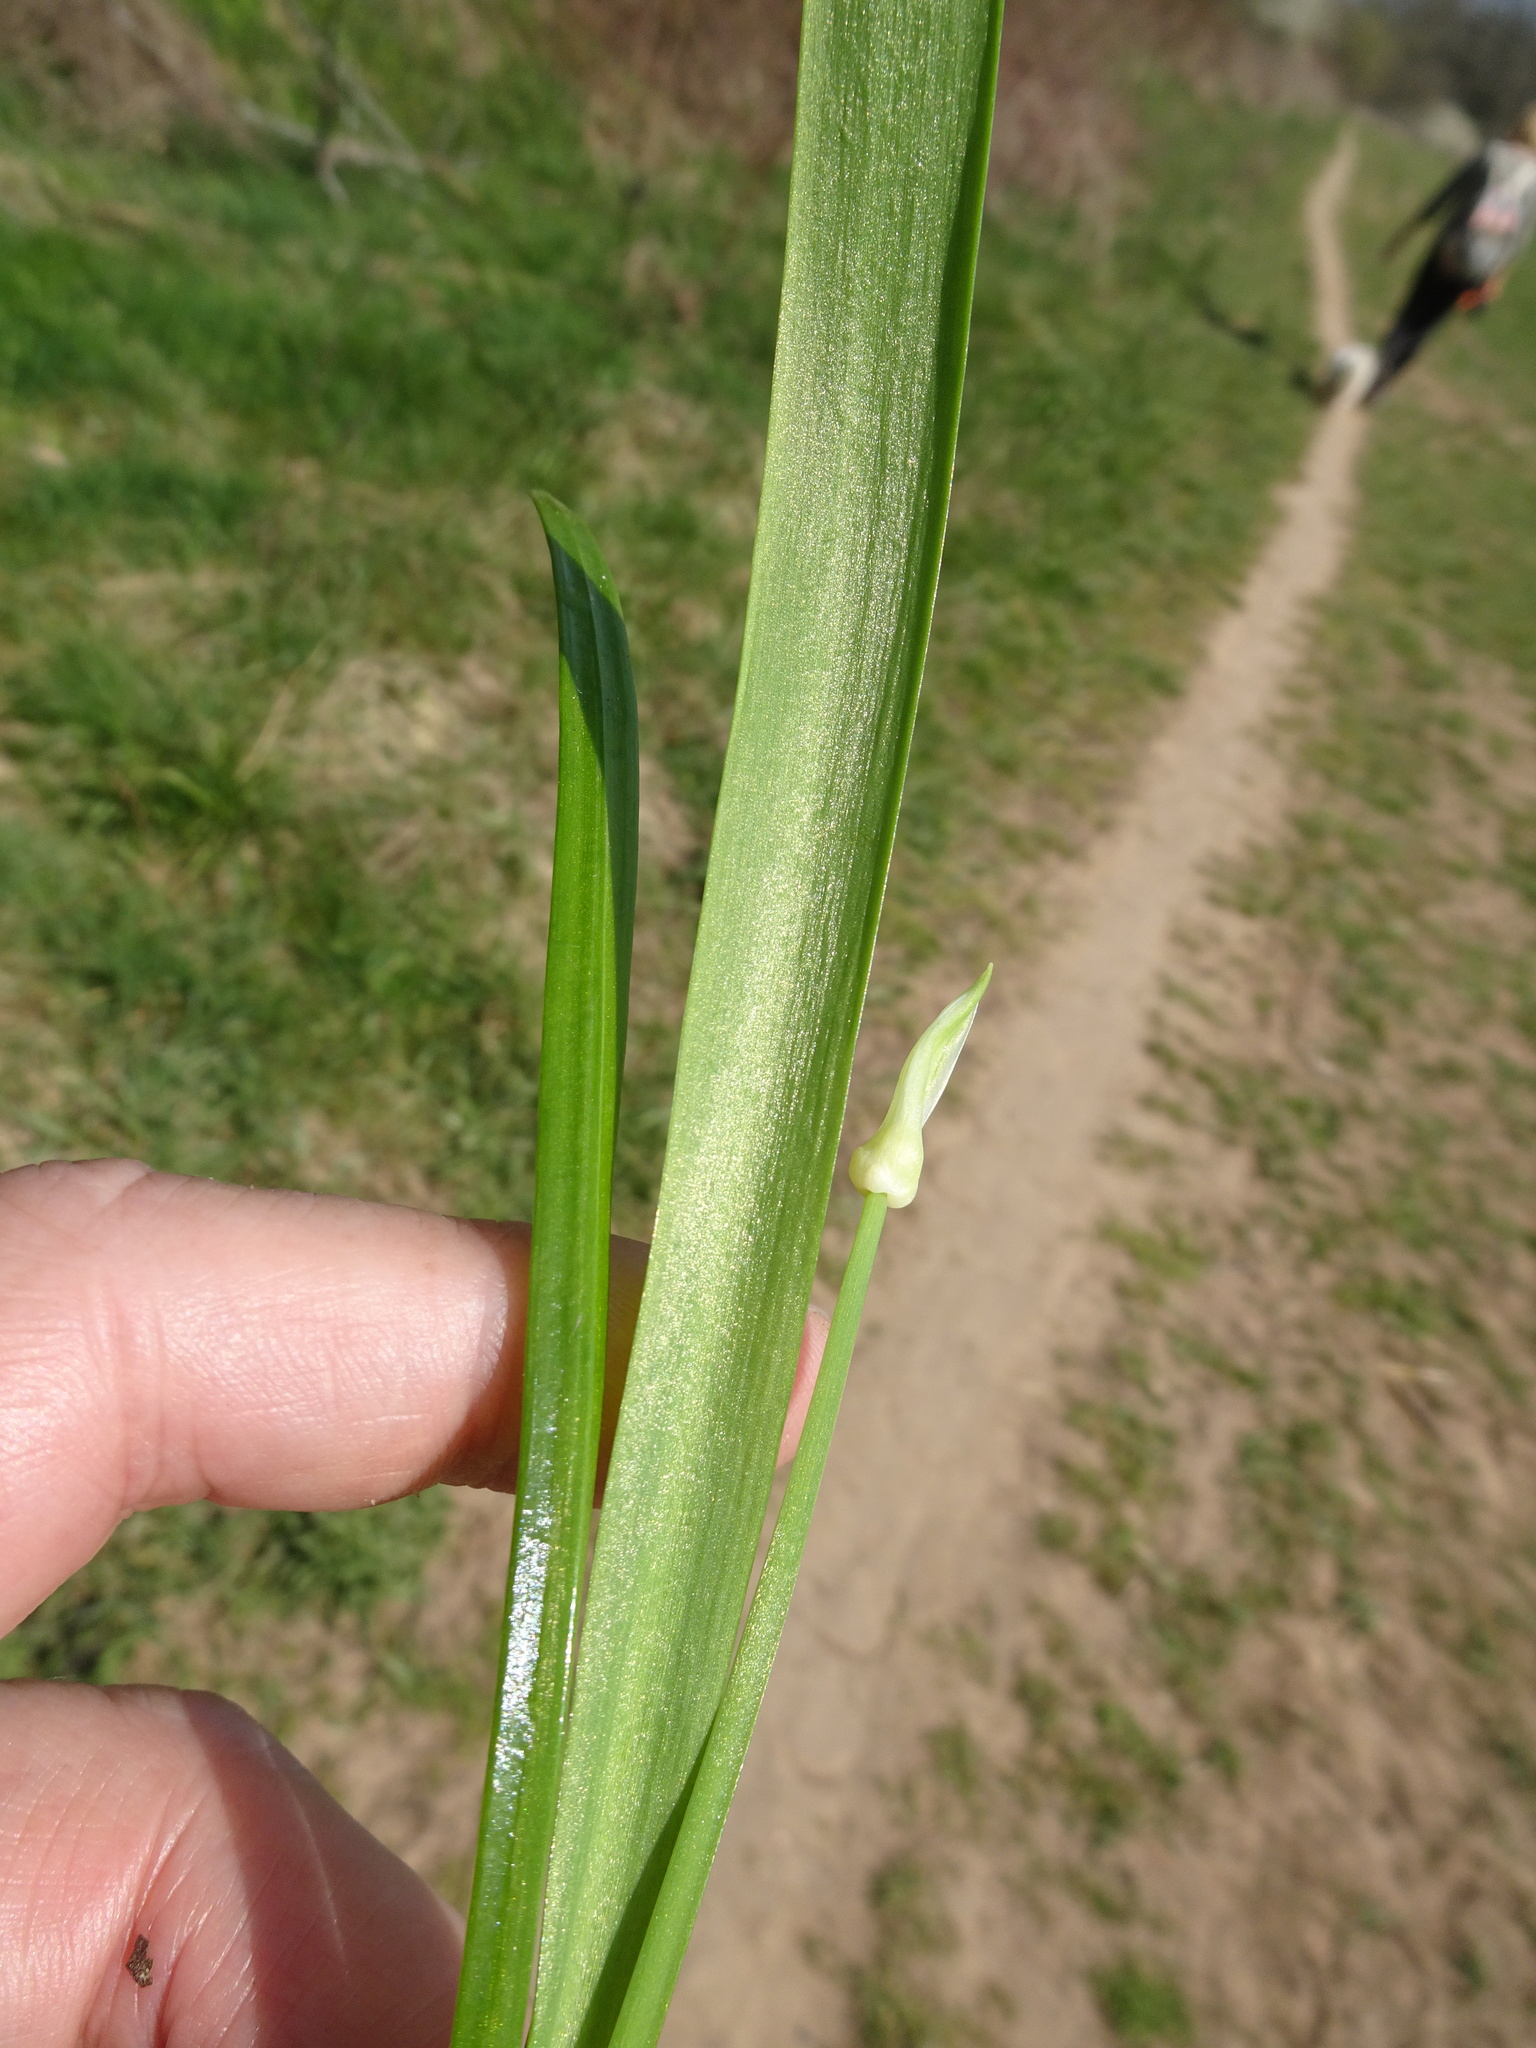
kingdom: Plantae
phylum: Tracheophyta
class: Liliopsida
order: Asparagales
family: Amaryllidaceae
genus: Allium
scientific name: Allium paradoxum
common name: Few-flowered garlic
